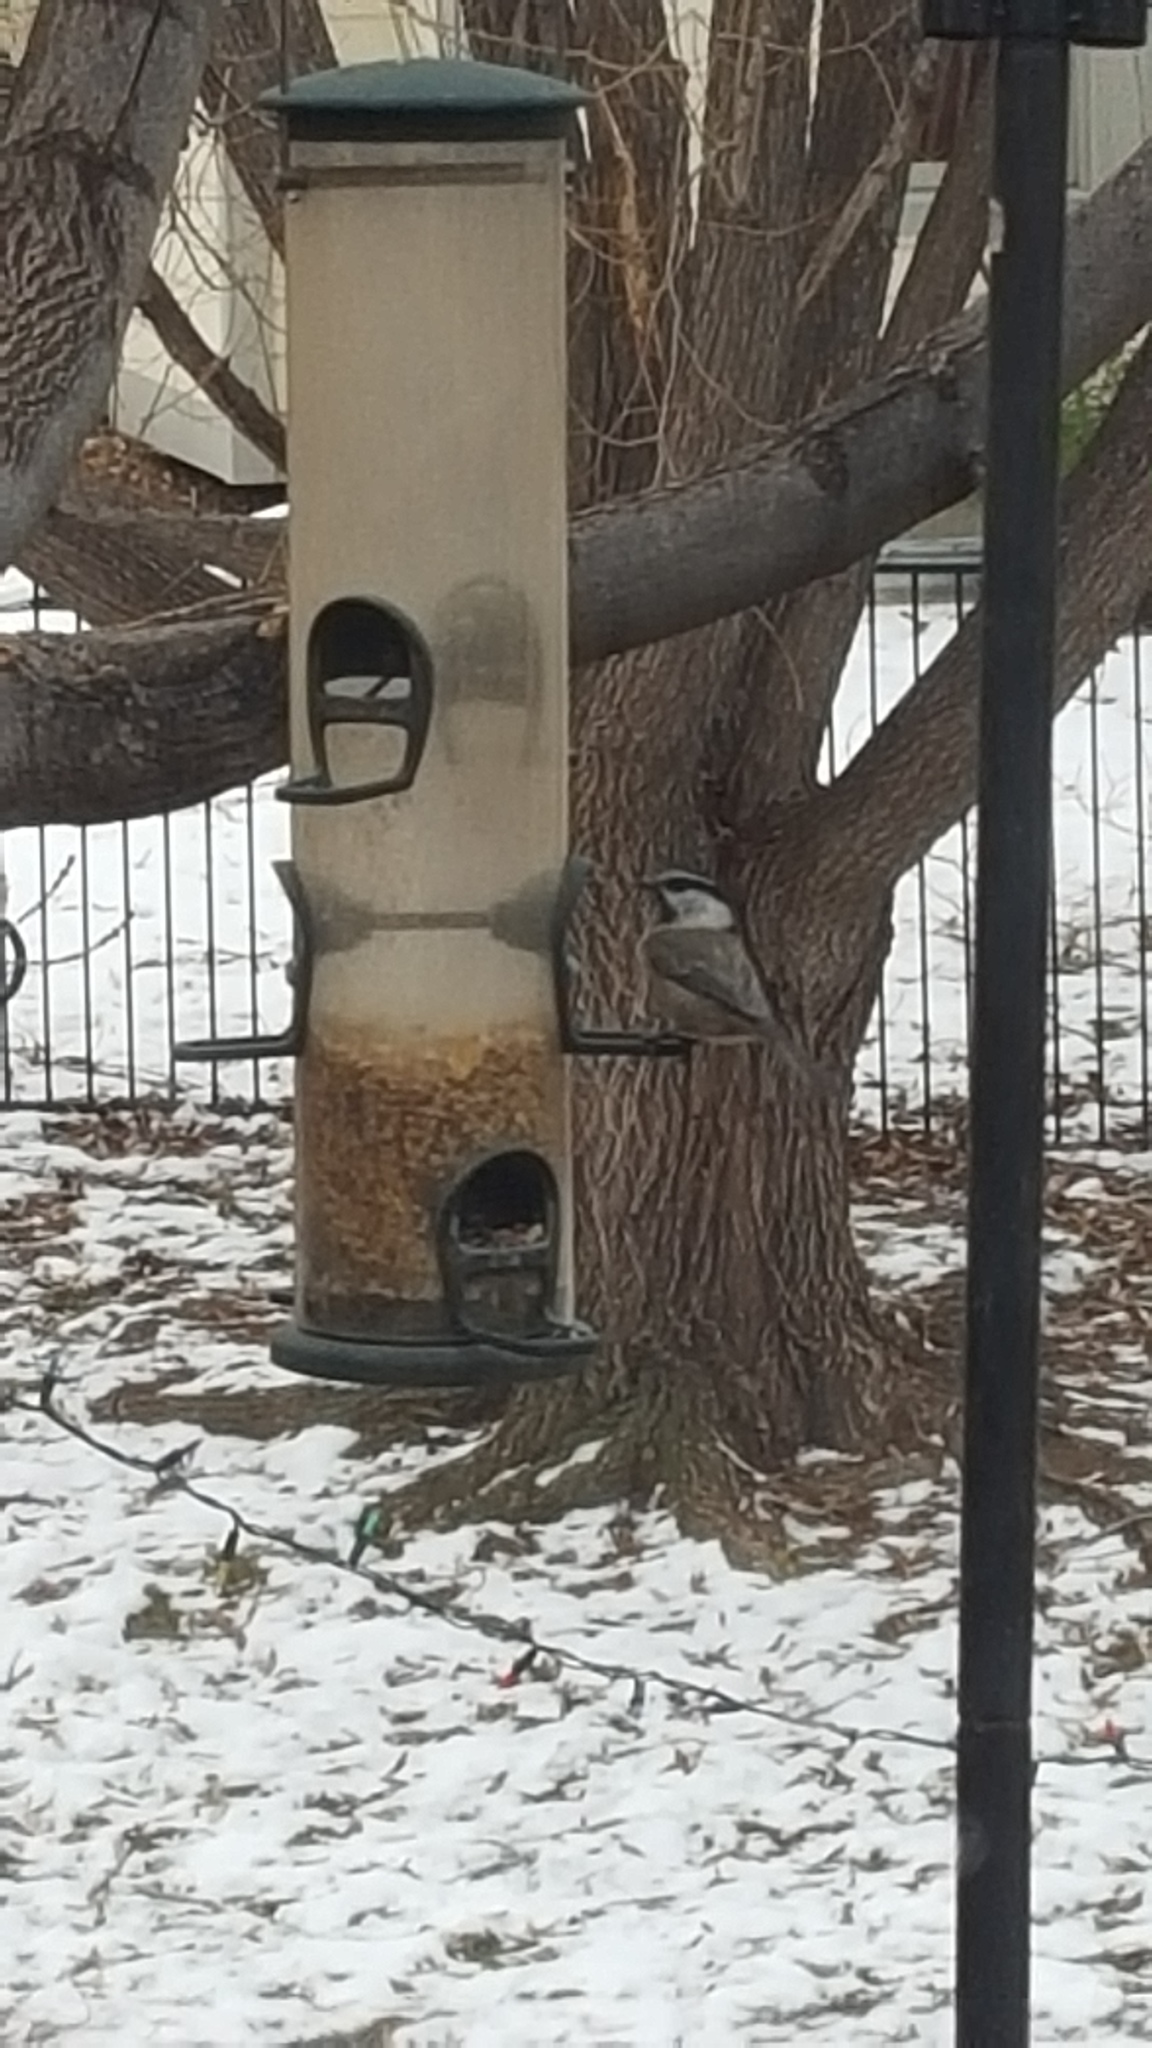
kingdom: Animalia
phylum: Chordata
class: Aves
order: Passeriformes
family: Paridae
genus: Poecile
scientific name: Poecile gambeli
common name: Mountain chickadee
